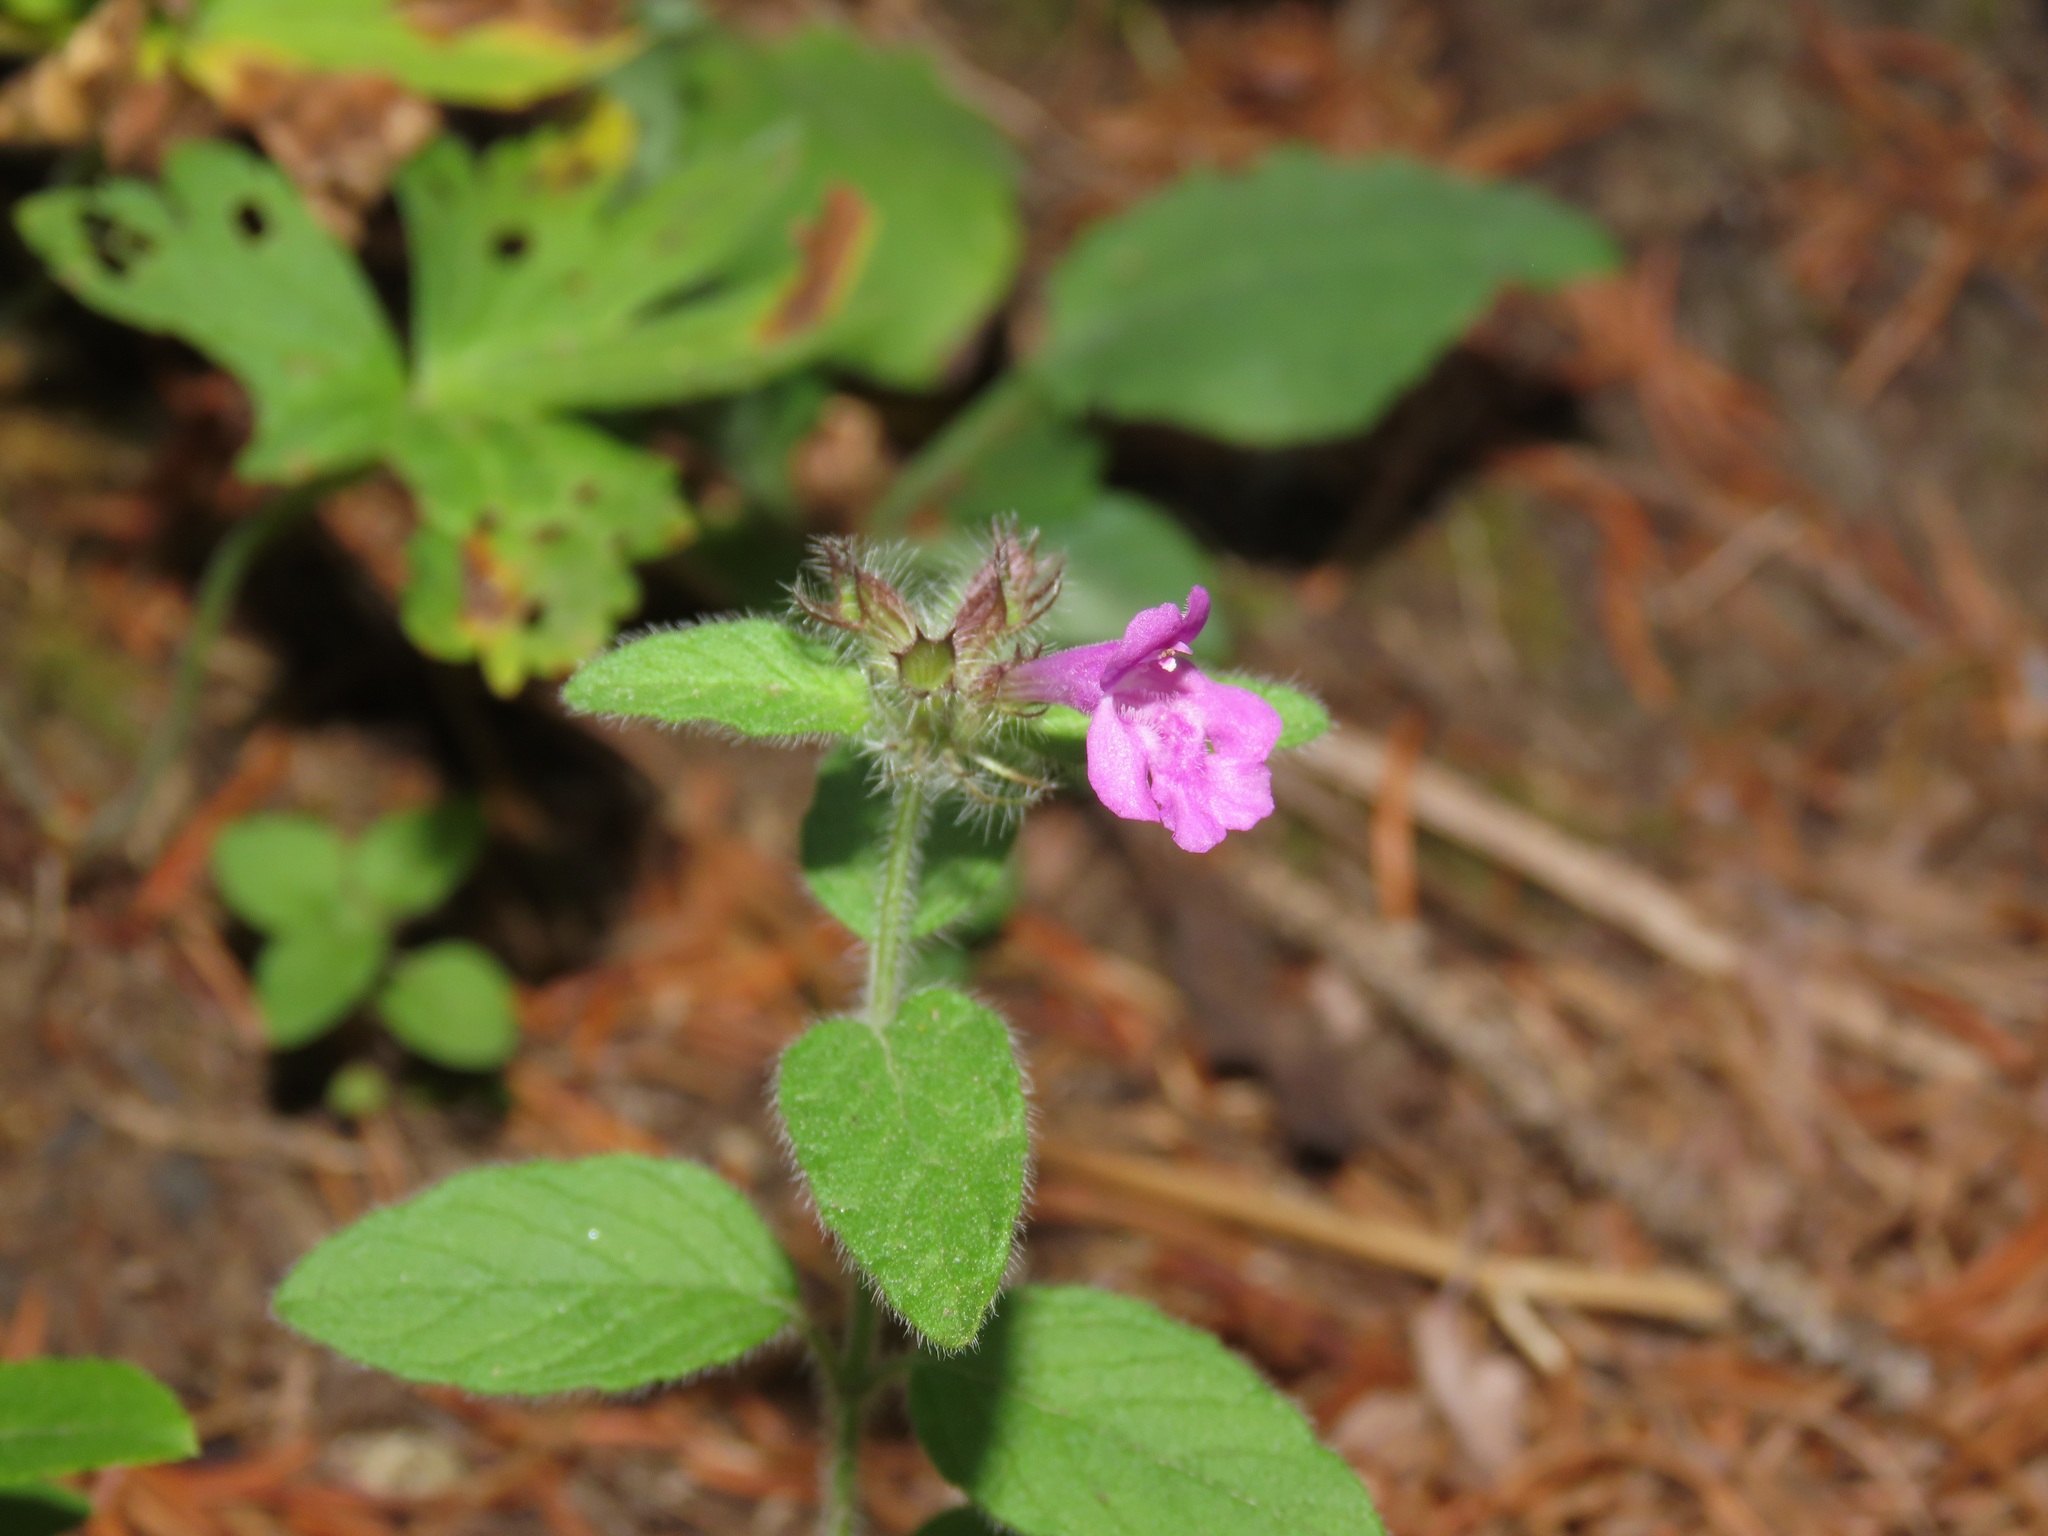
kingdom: Plantae
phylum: Tracheophyta
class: Magnoliopsida
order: Lamiales
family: Lamiaceae
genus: Clinopodium
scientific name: Clinopodium vulgare
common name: Wild basil
